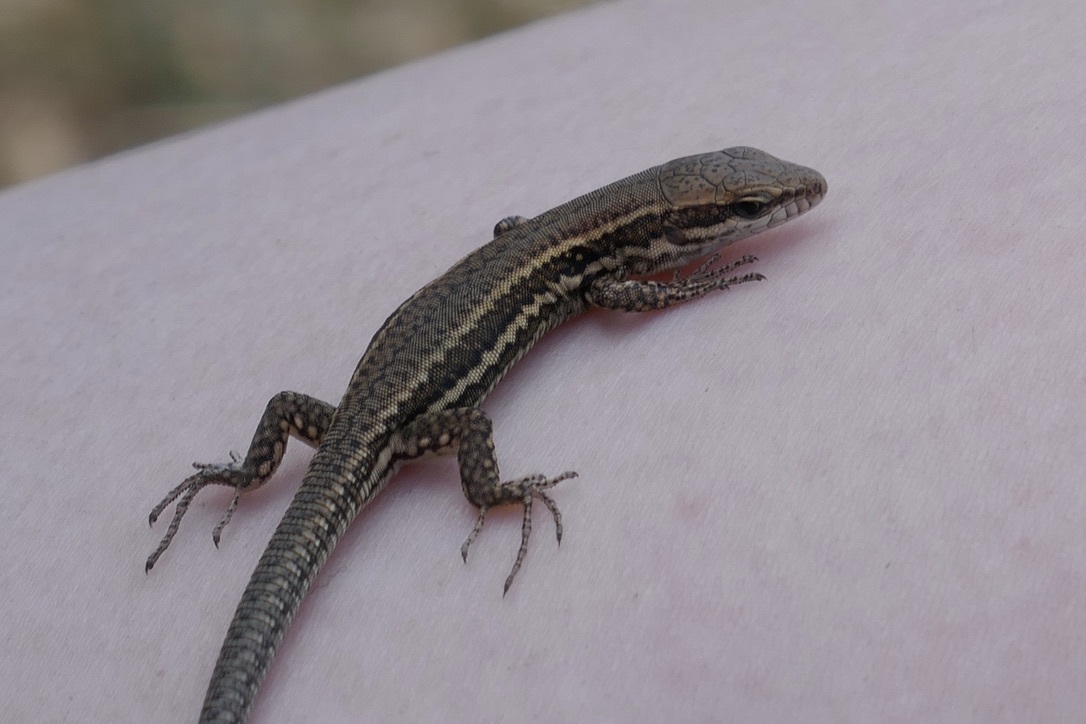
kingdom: Animalia
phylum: Chordata
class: Squamata
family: Lacertidae
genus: Podarcis
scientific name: Podarcis muralis
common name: Common wall lizard
